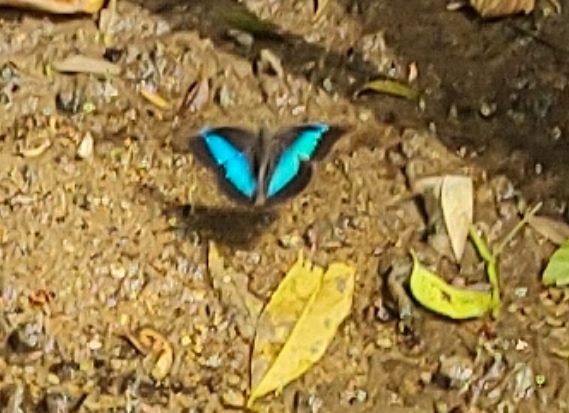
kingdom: Animalia
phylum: Arthropoda
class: Insecta
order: Lepidoptera
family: Nymphalidae
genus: Prepona
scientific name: Prepona Archaeoprepona chalciope
